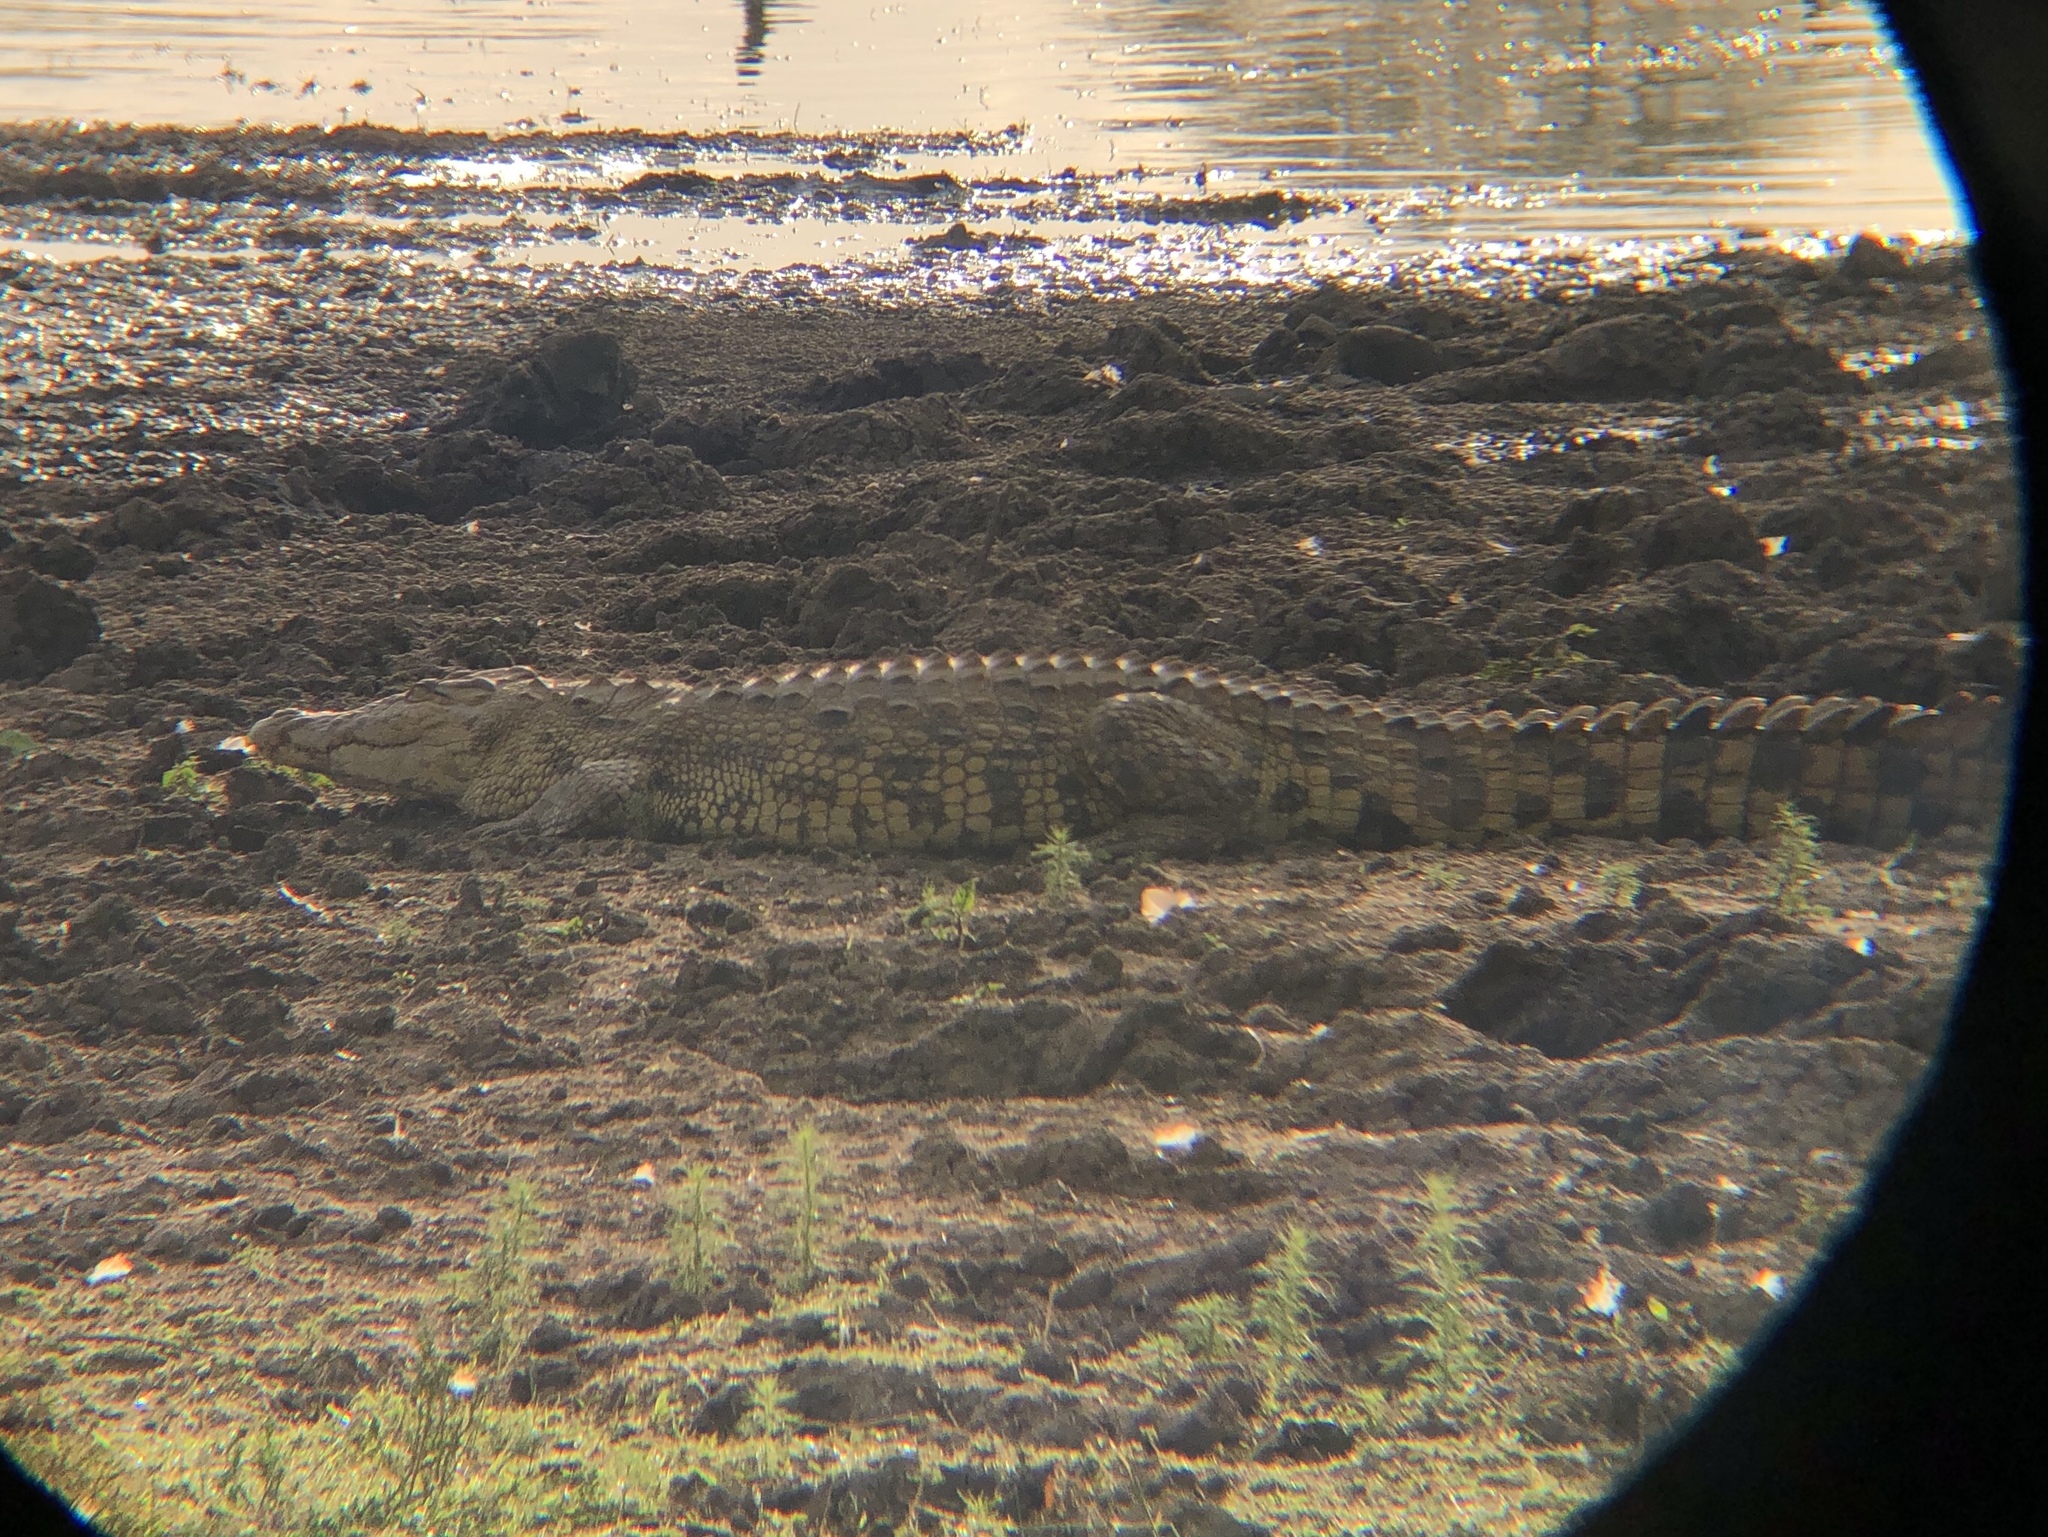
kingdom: Animalia
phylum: Chordata
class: Crocodylia
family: Crocodylidae
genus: Crocodylus
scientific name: Crocodylus niloticus
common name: Nile crocodile
